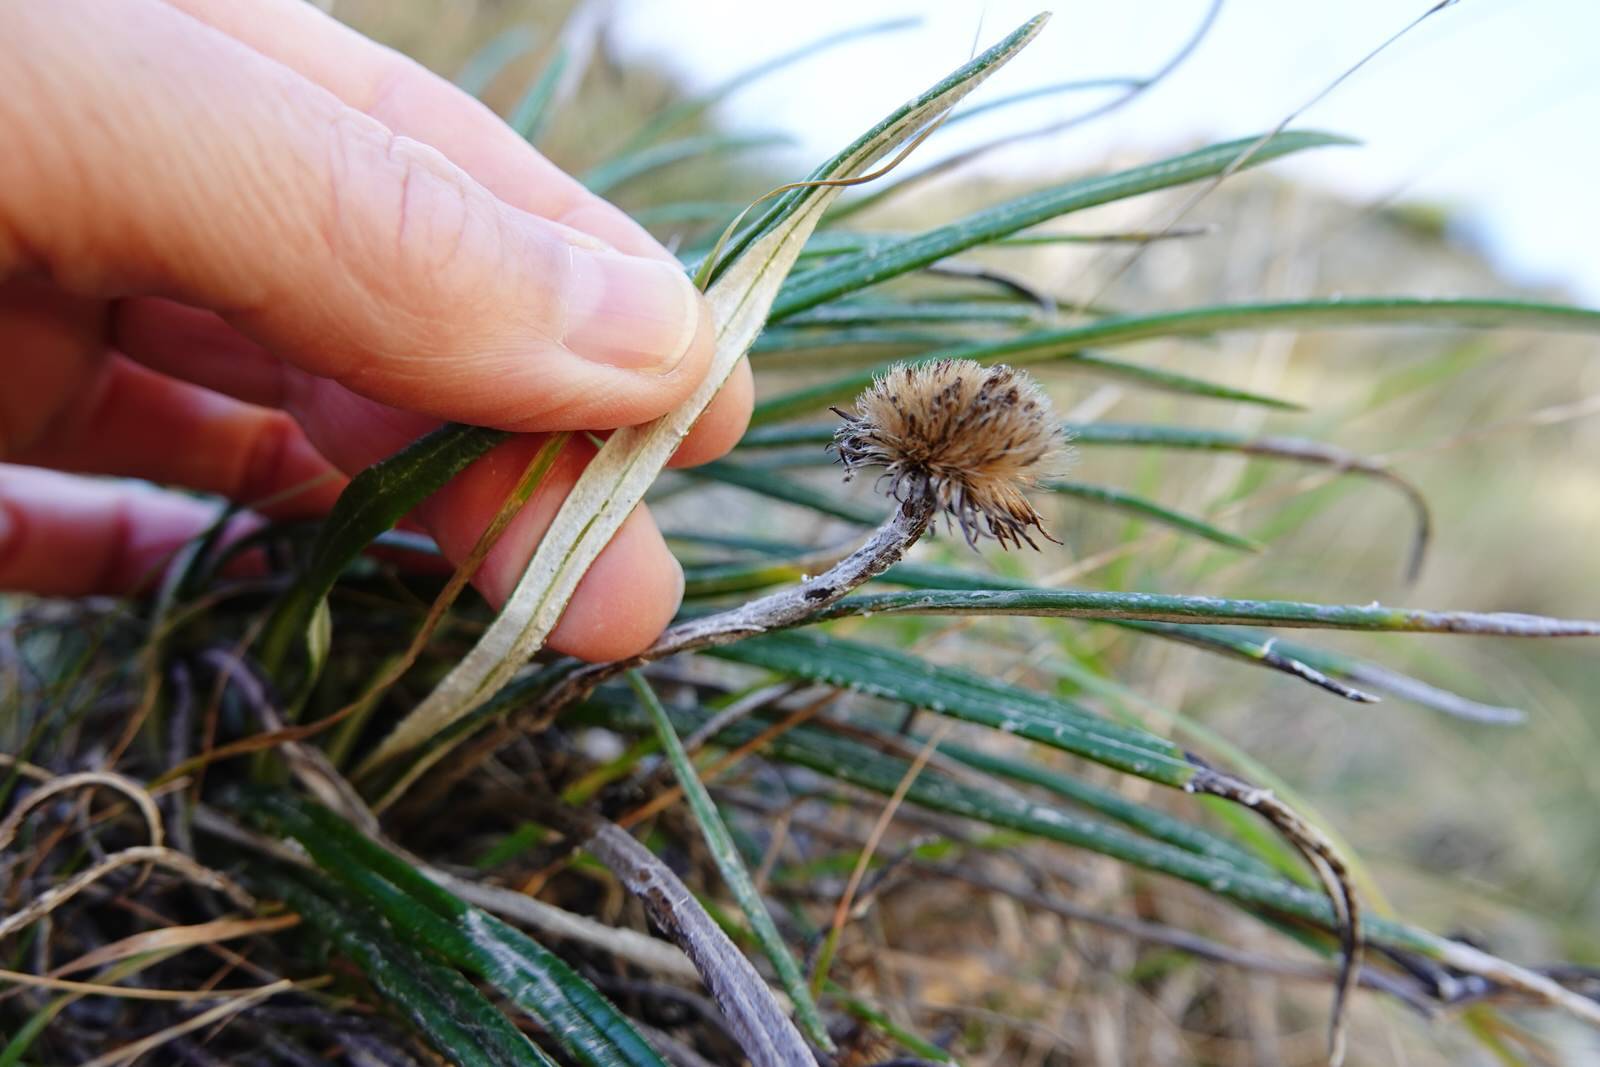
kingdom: Plantae
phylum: Tracheophyta
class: Magnoliopsida
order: Asterales
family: Asteraceae
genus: Celmisia
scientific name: Celmisia gracilenta
